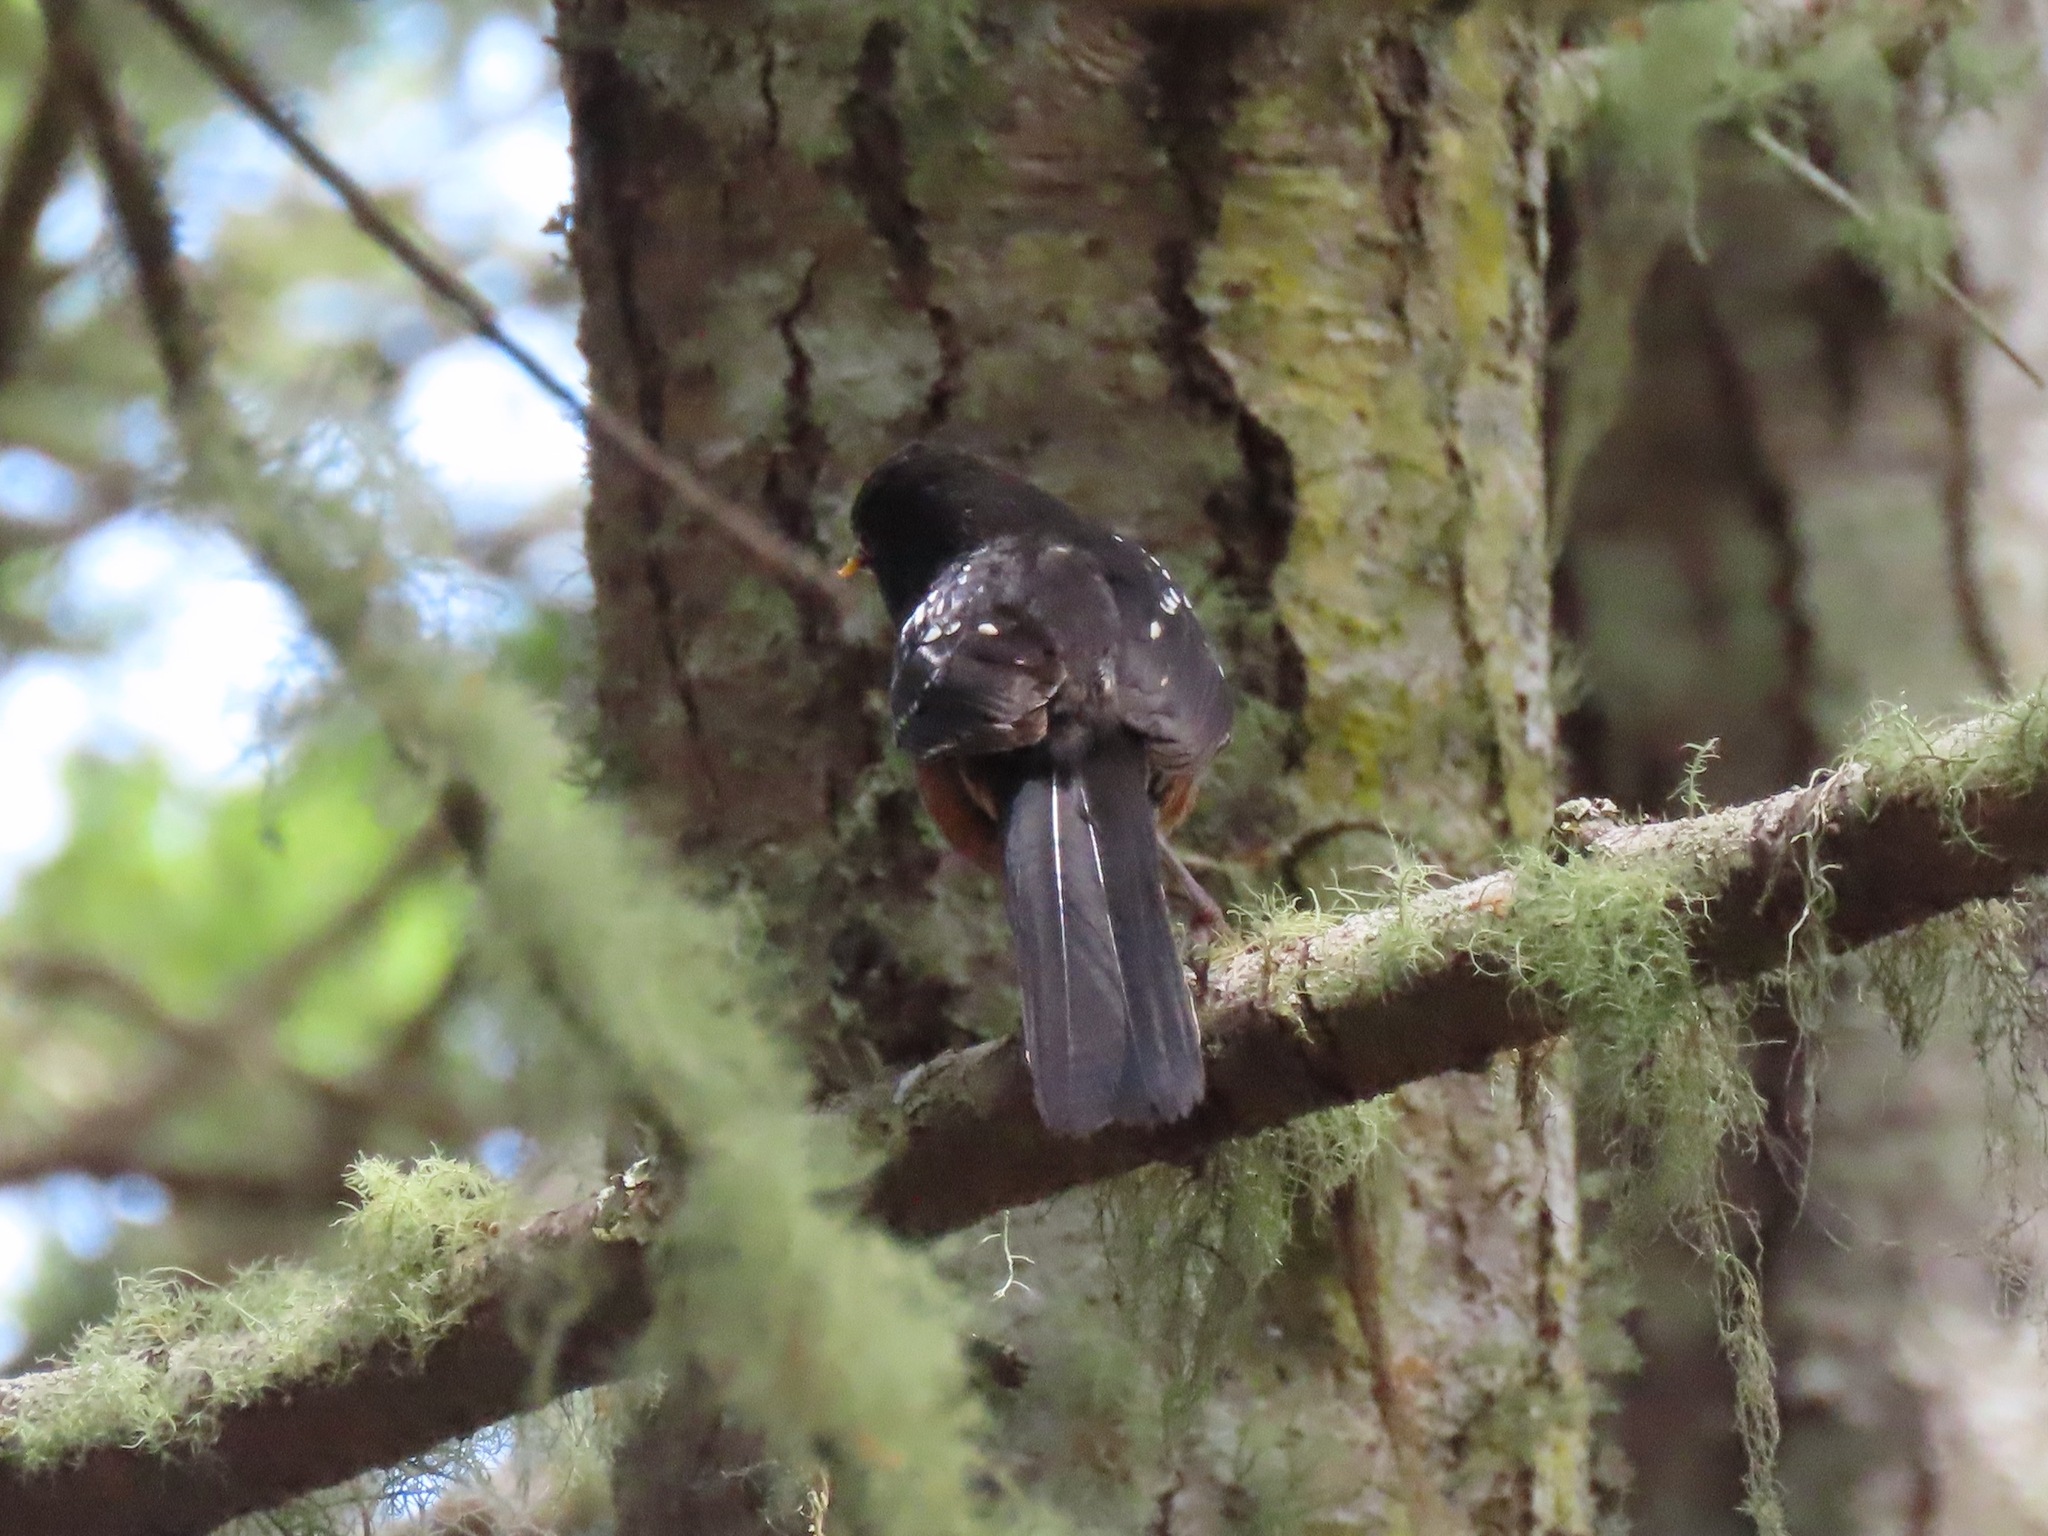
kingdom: Animalia
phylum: Chordata
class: Aves
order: Passeriformes
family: Passerellidae
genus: Pipilo
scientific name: Pipilo maculatus
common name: Spotted towhee
